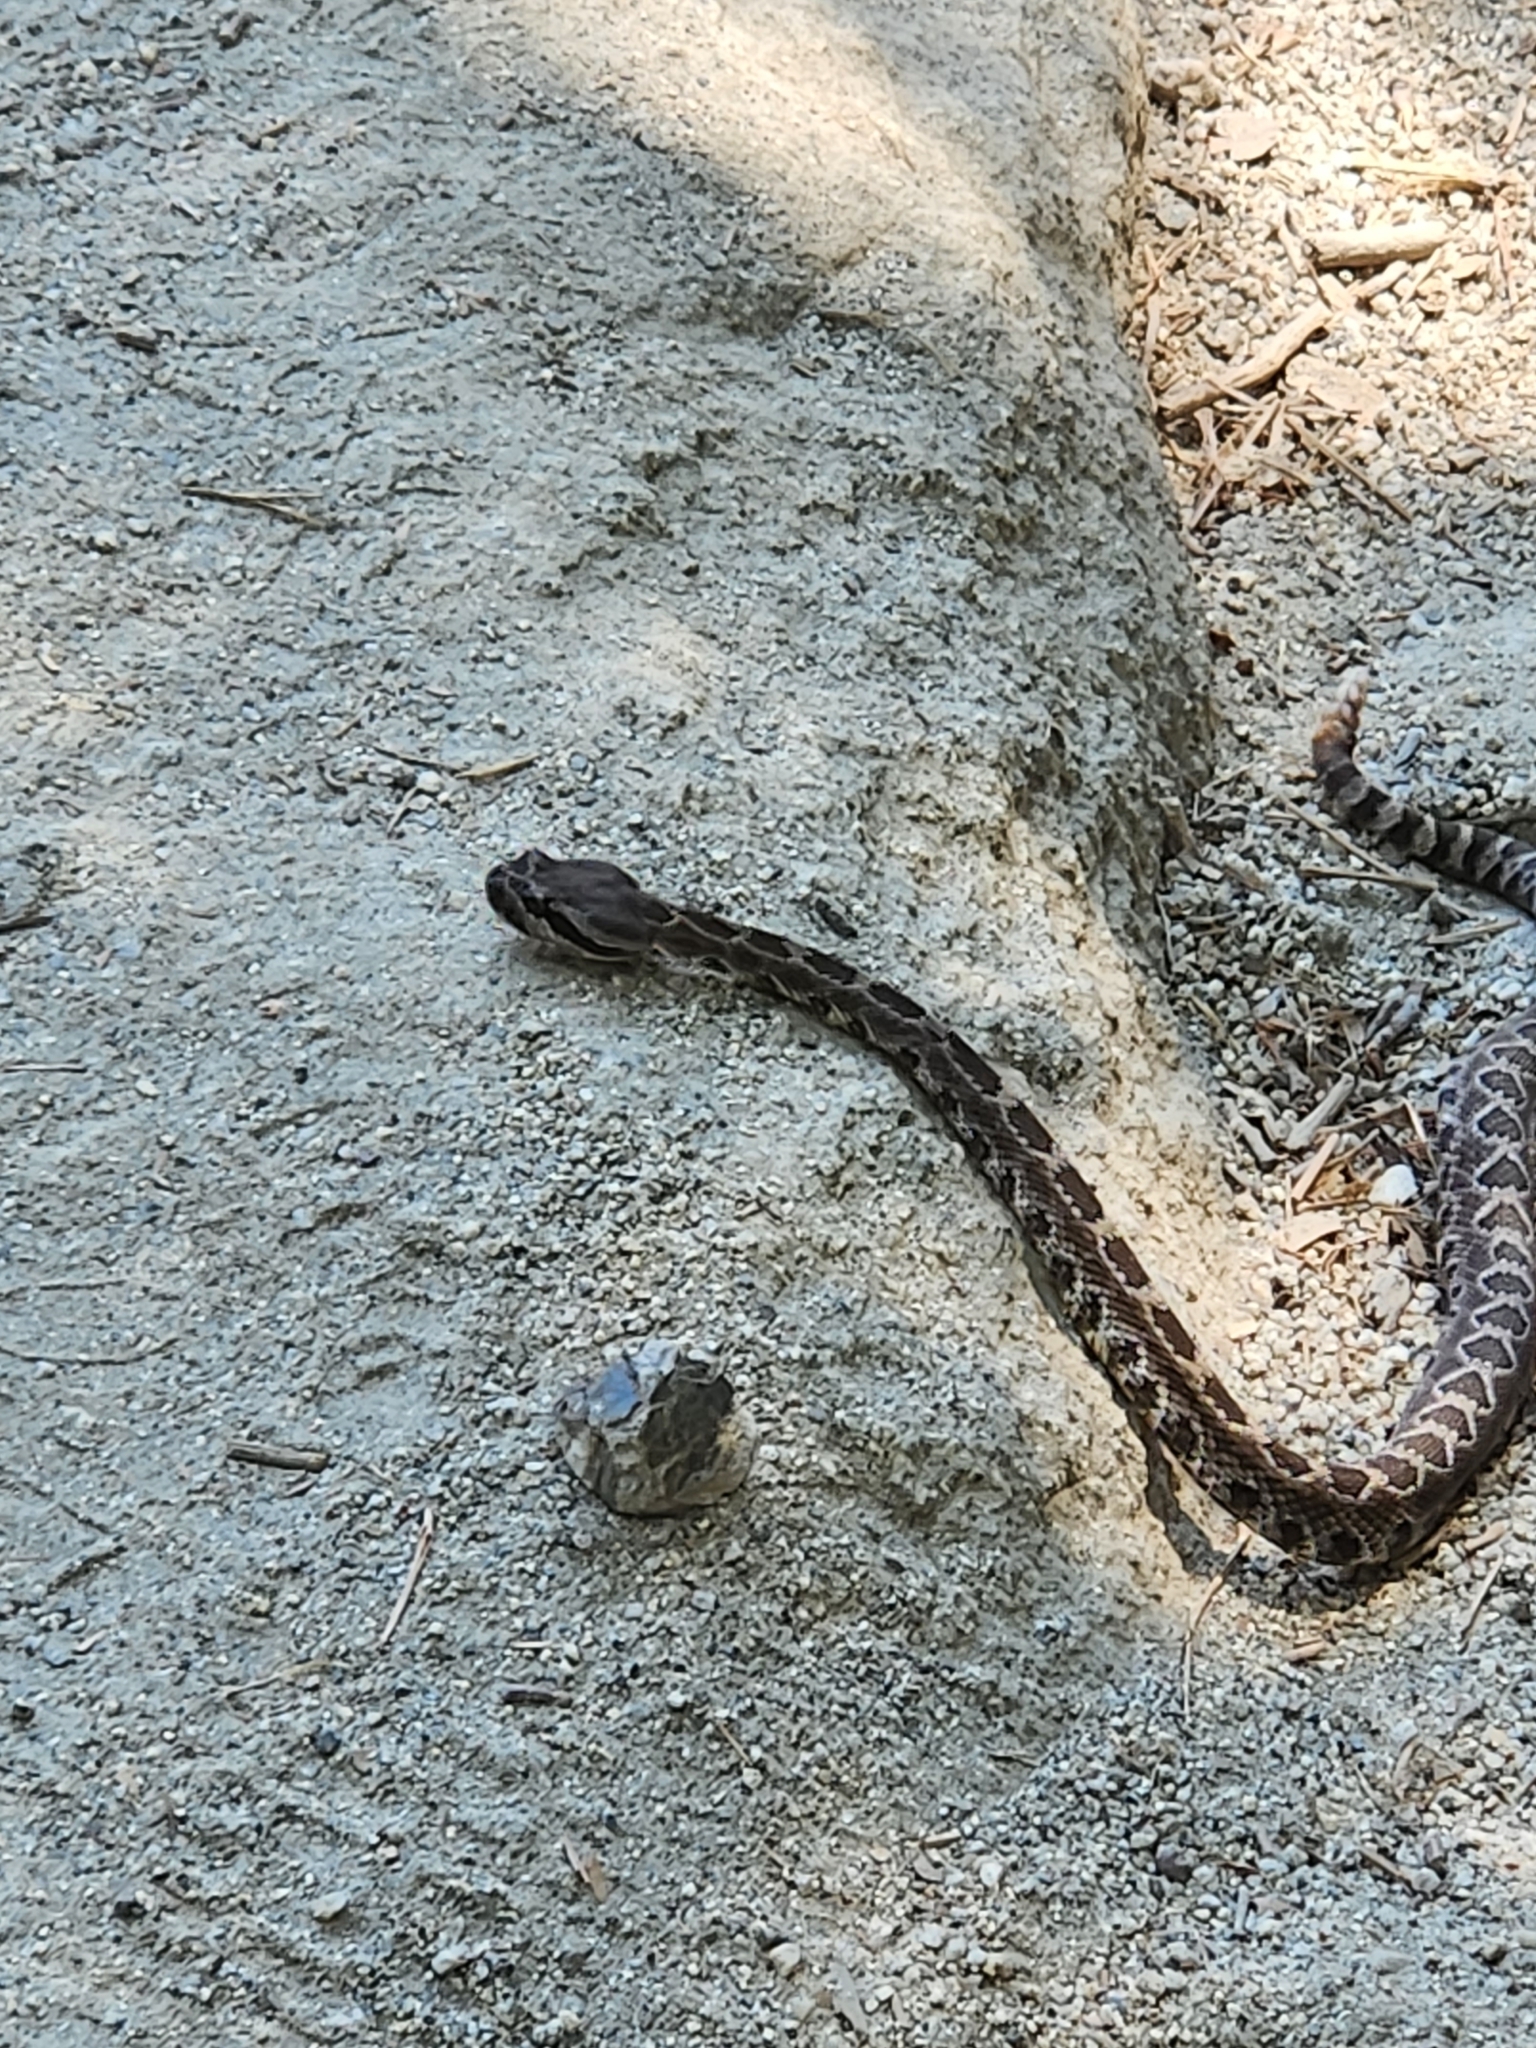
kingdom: Animalia
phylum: Chordata
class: Squamata
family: Viperidae
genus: Crotalus
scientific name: Crotalus oreganus
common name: Abyssus
